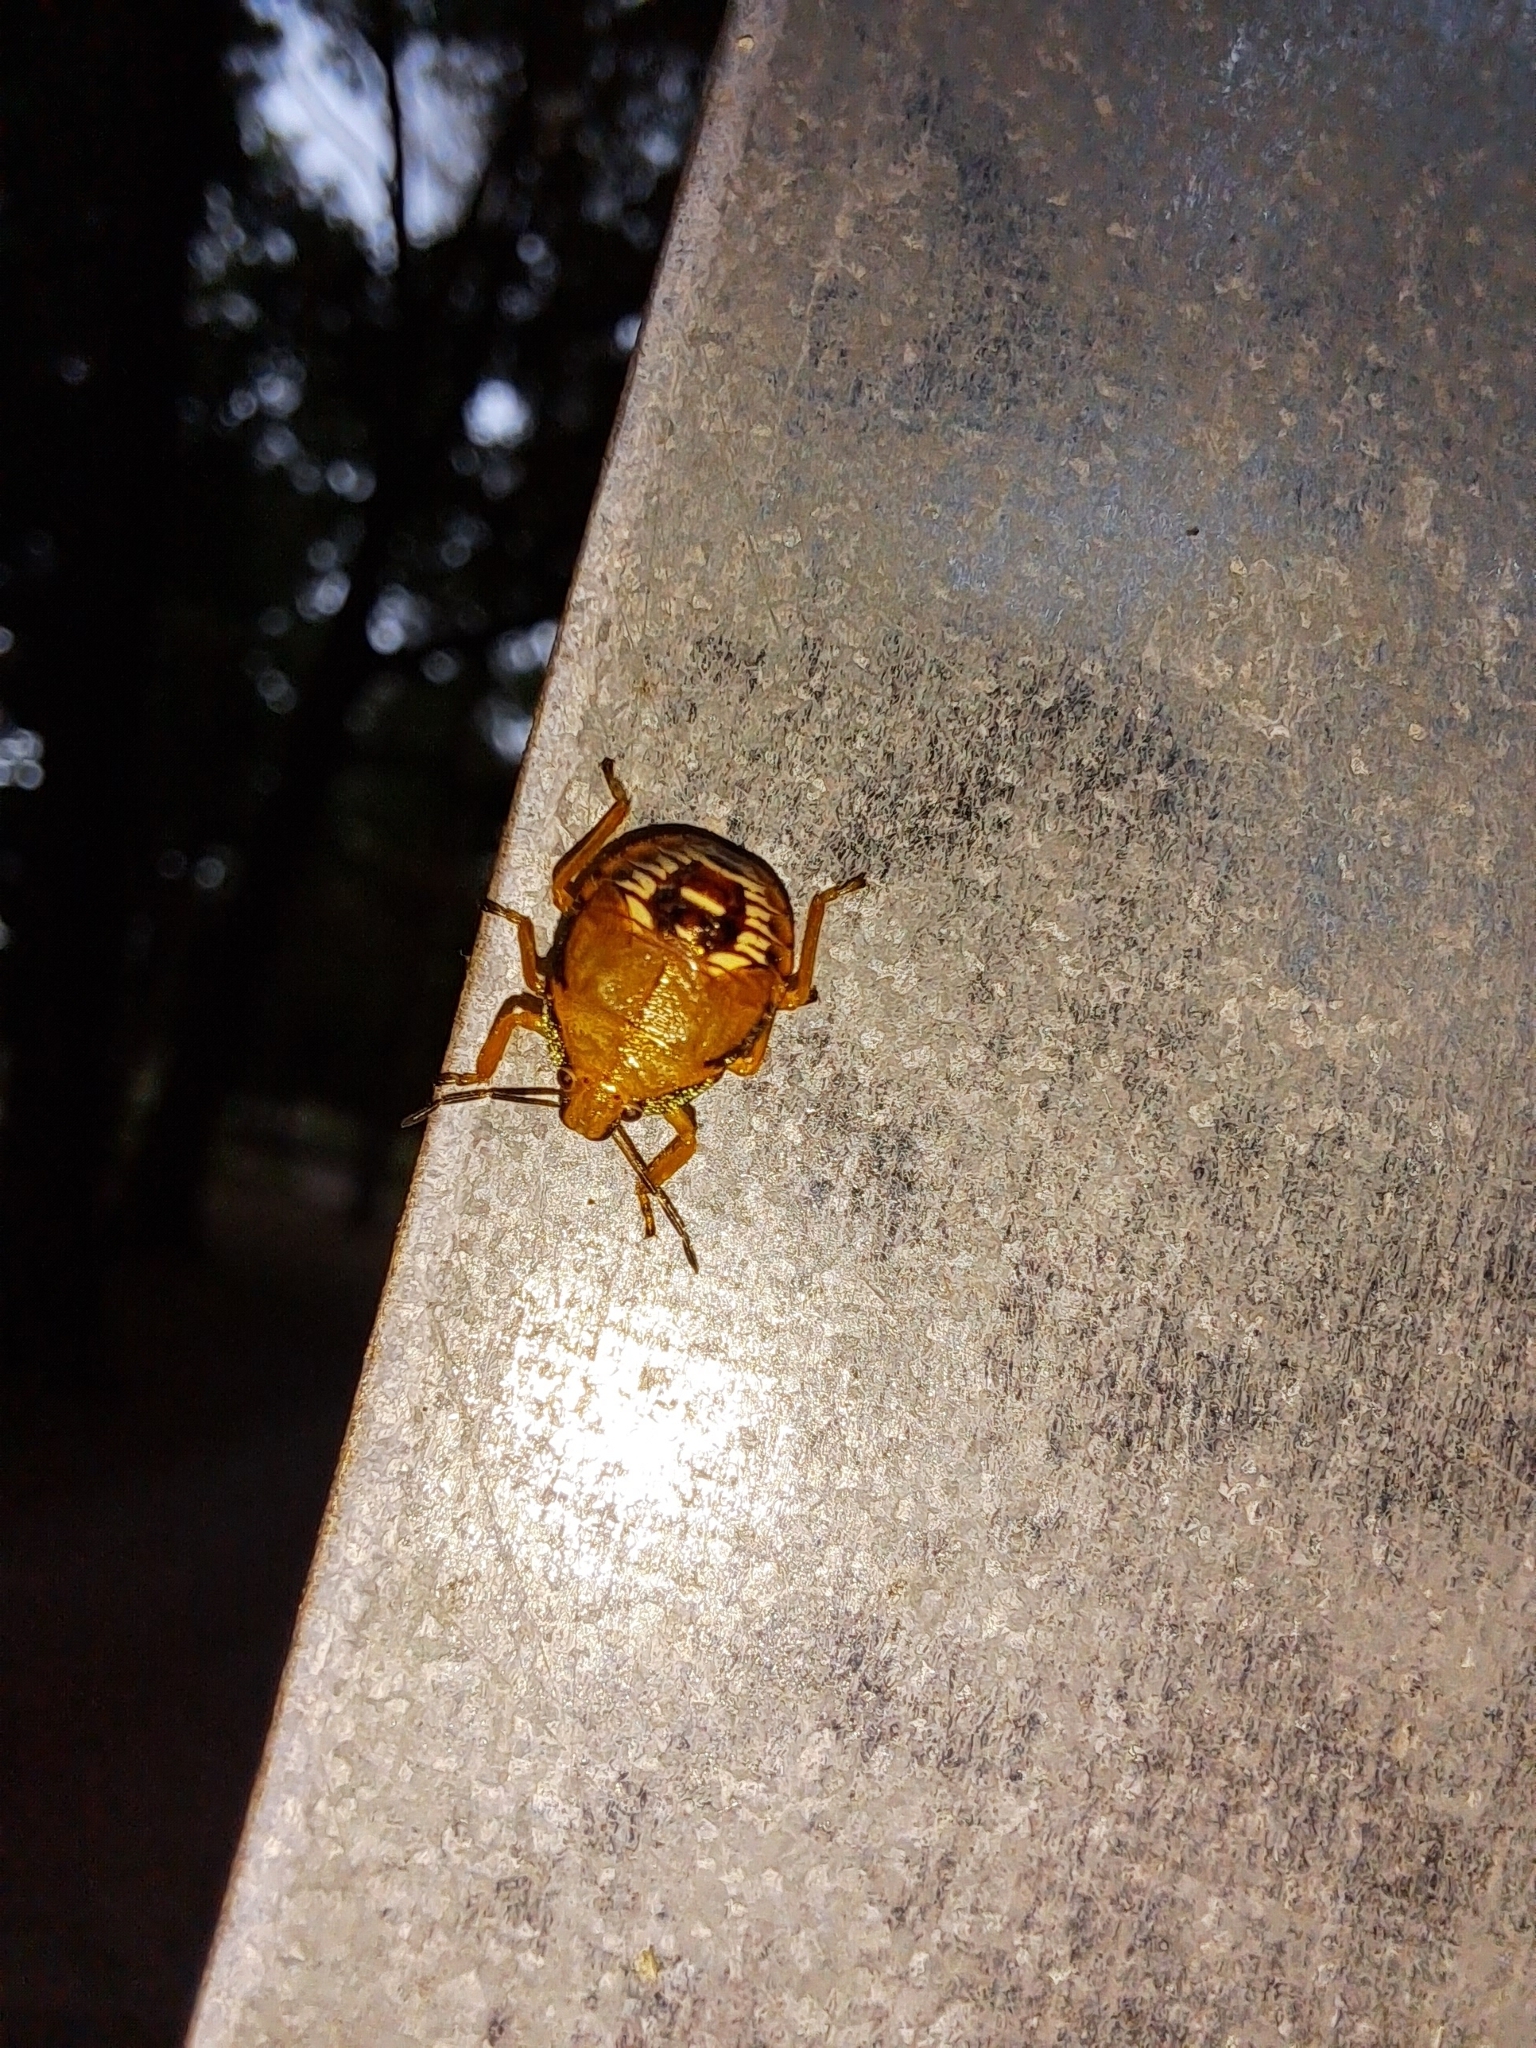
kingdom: Animalia
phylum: Arthropoda
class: Insecta
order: Hemiptera
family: Pentatomidae
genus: Podisus
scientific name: Podisus maculiventris
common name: Spined soldier bug
